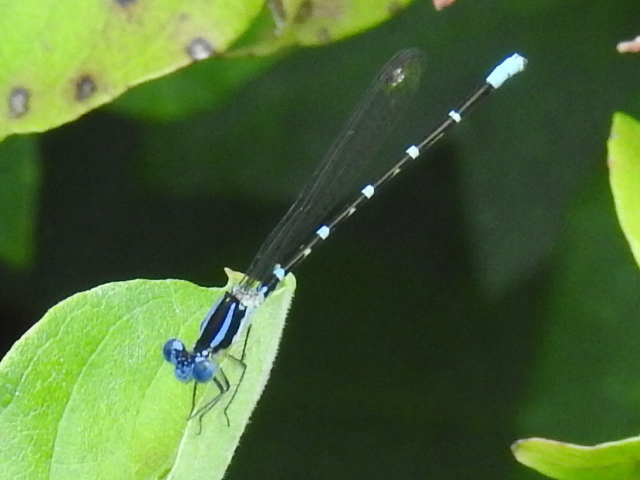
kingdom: Animalia
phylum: Arthropoda
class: Insecta
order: Odonata
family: Coenagrionidae
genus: Argia
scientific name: Argia sedula
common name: Blue-ringed dancer
